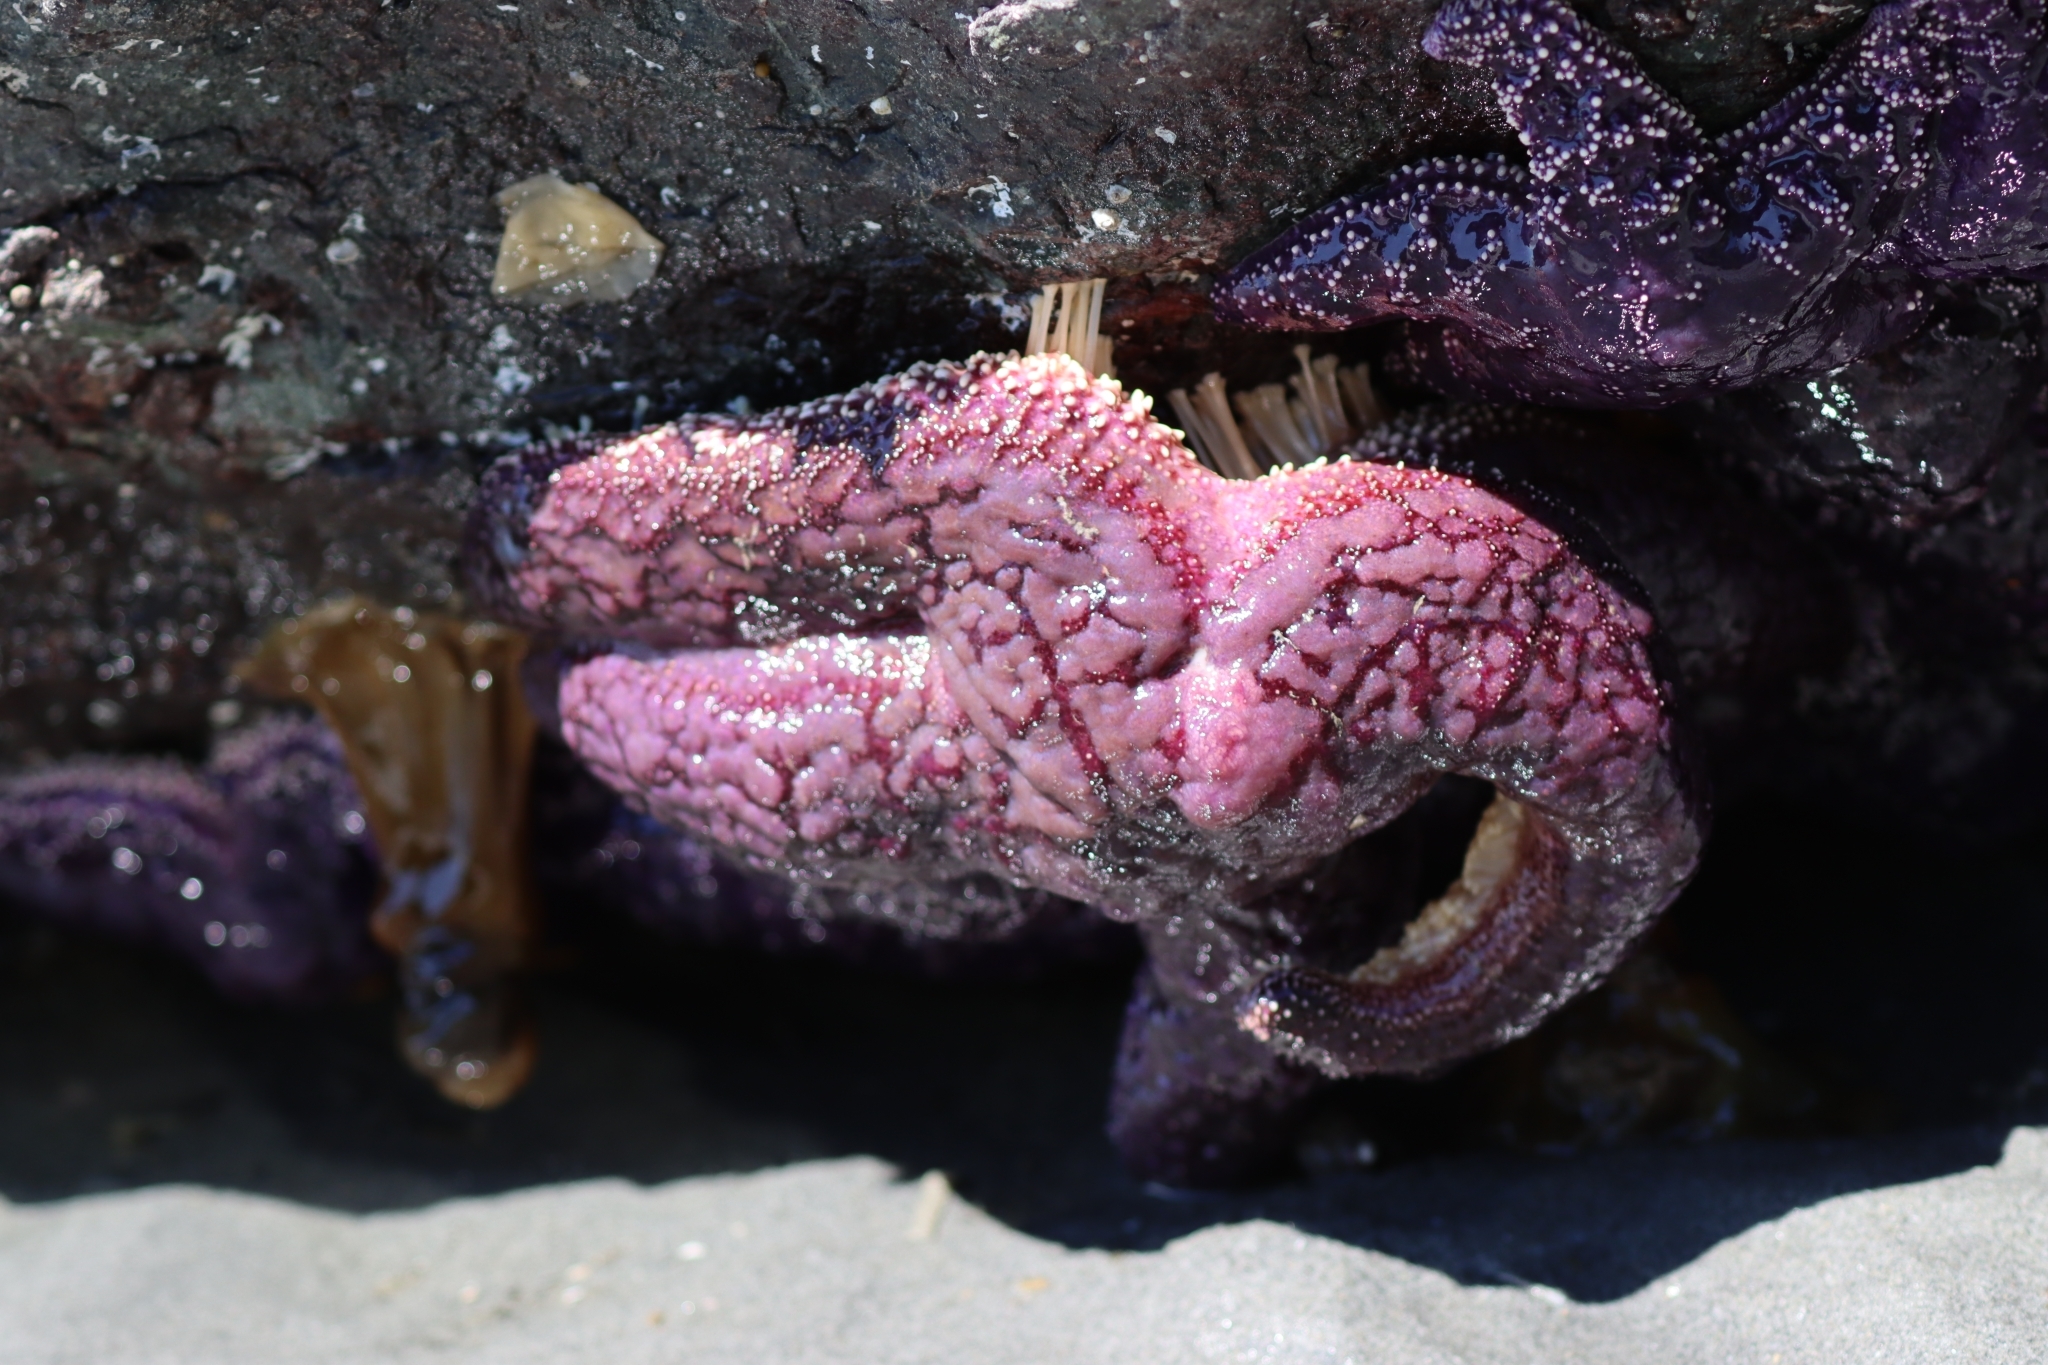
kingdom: Animalia
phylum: Echinodermata
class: Asteroidea
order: Forcipulatida
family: Asteriidae
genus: Pisaster
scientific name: Pisaster ochraceus
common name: Ochre stars
